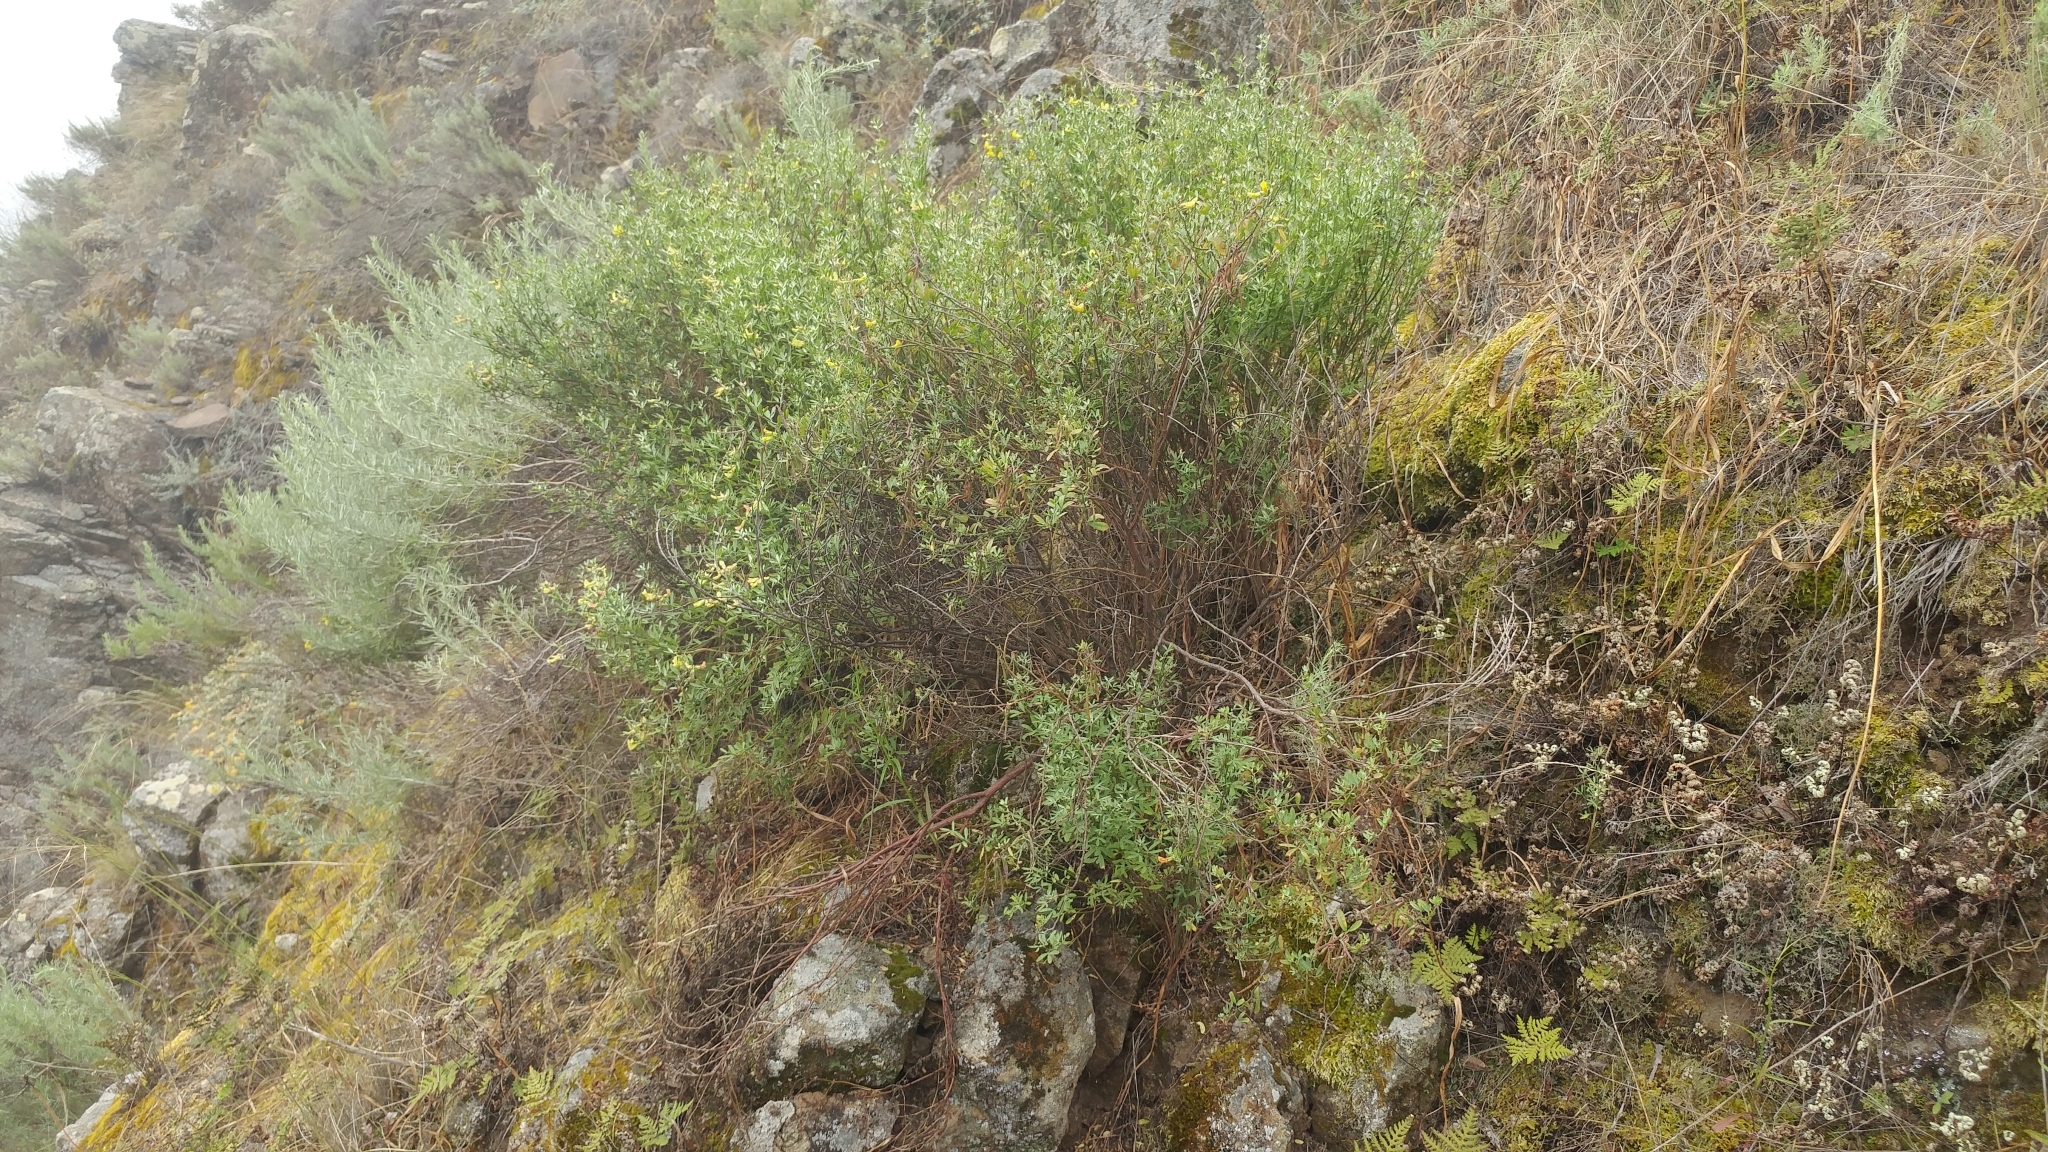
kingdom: Plantae
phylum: Tracheophyta
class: Magnoliopsida
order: Fabales
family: Fabaceae
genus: Acmispon
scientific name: Acmispon dendroideus
